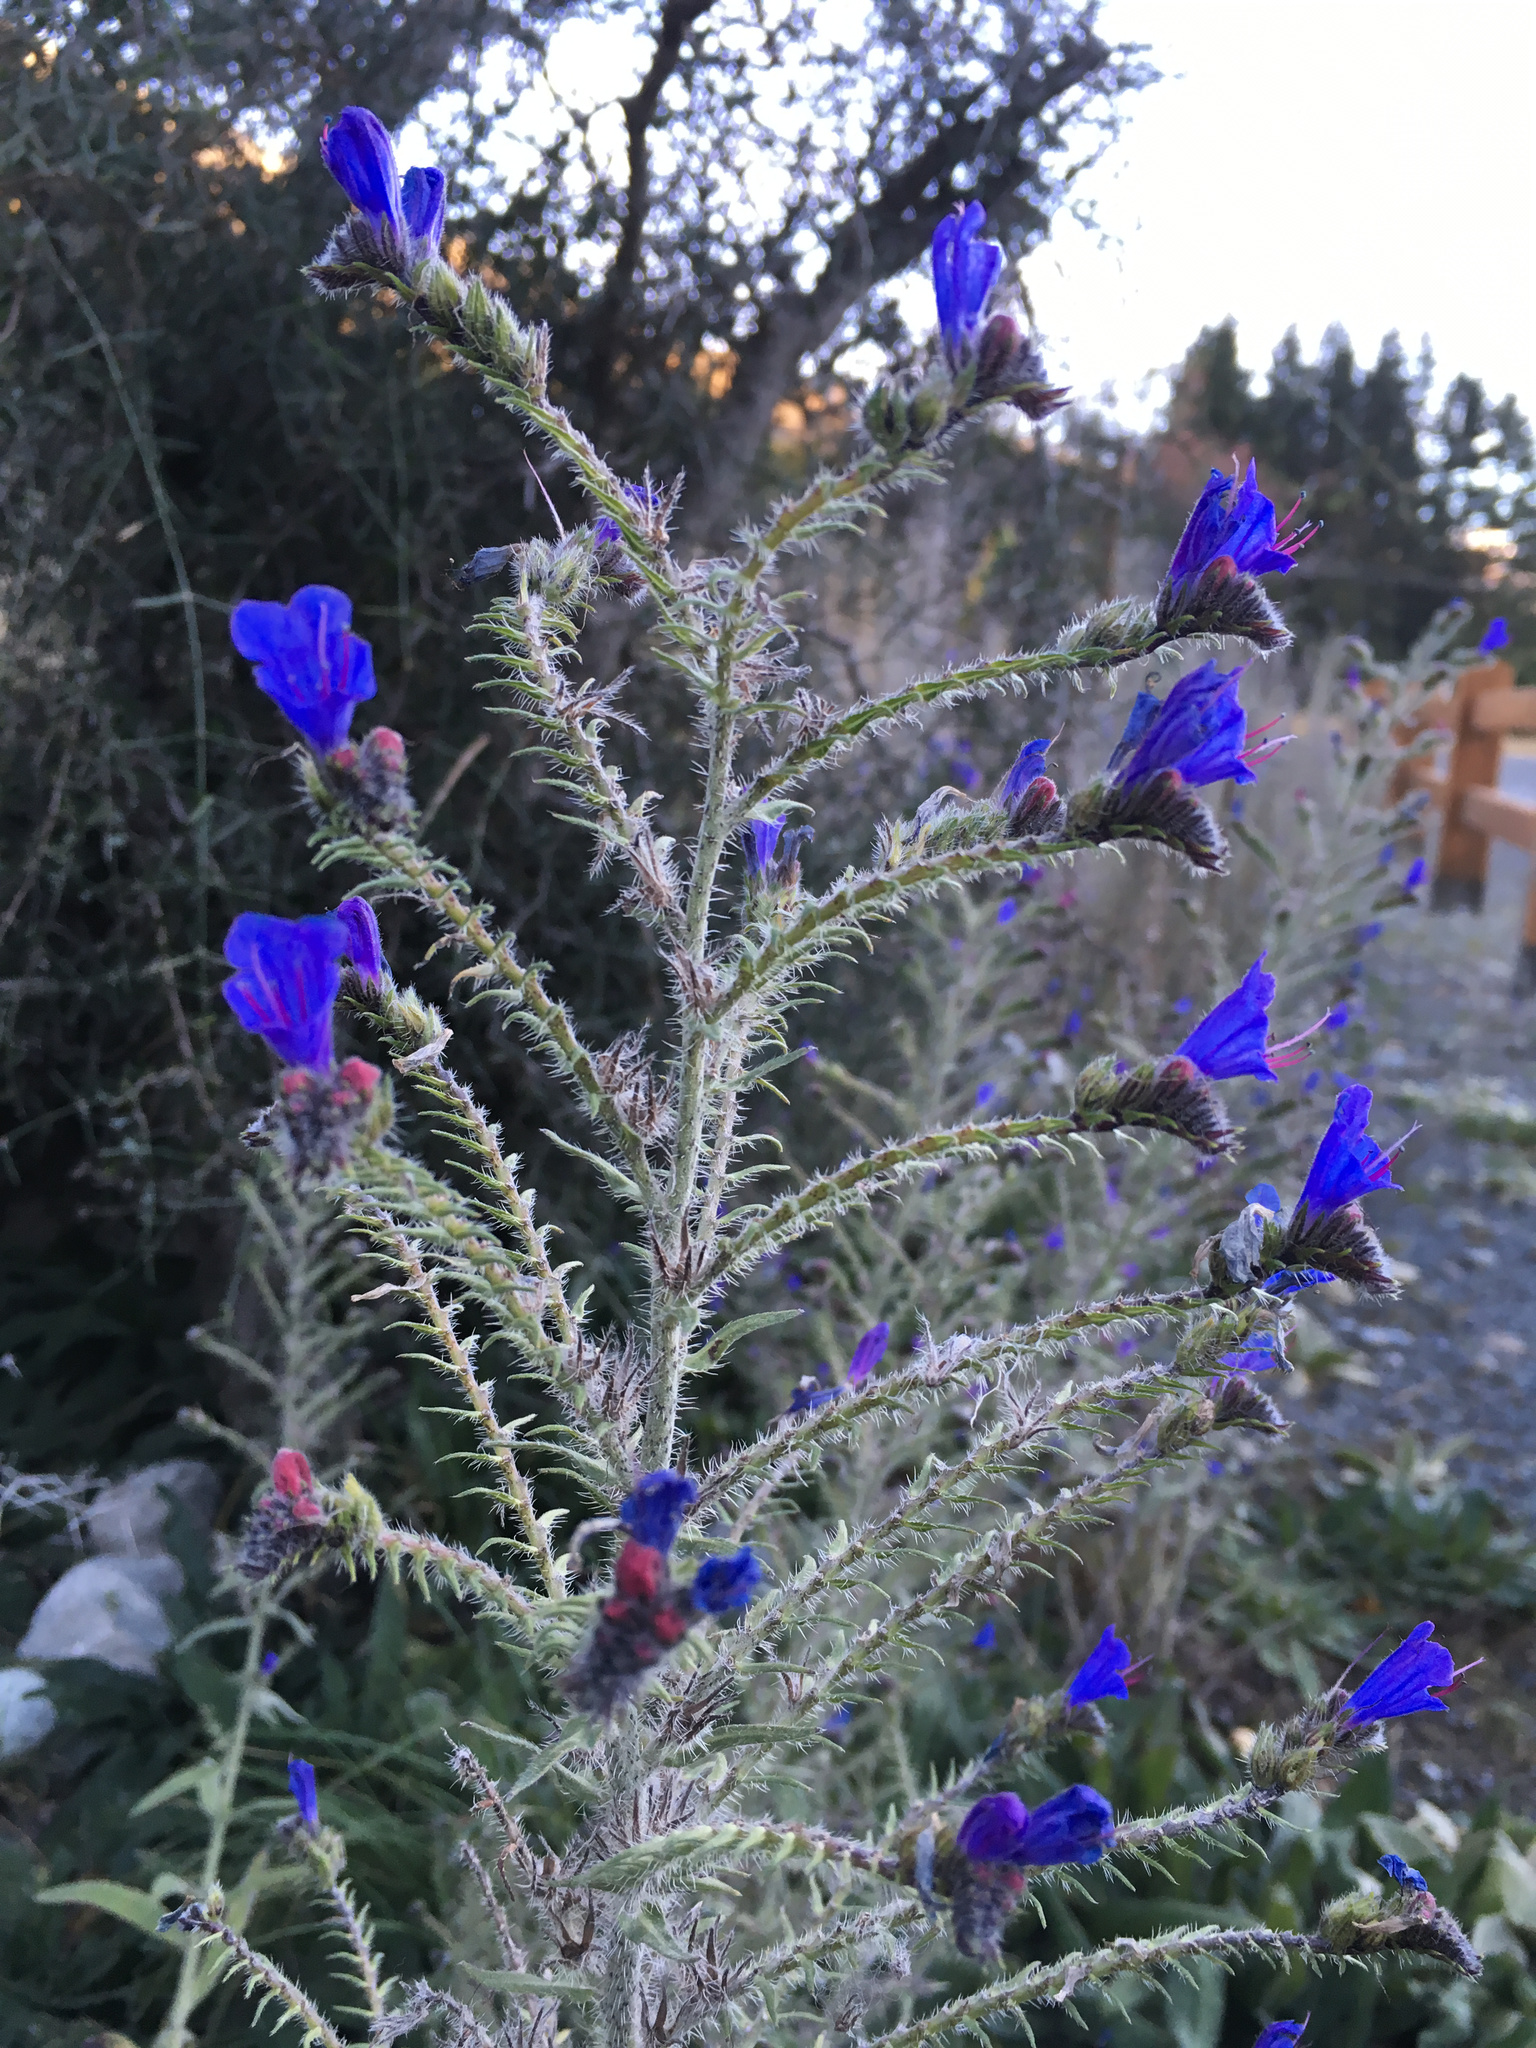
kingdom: Plantae
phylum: Tracheophyta
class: Magnoliopsida
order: Boraginales
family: Boraginaceae
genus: Echium
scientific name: Echium vulgare
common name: Common viper's bugloss
